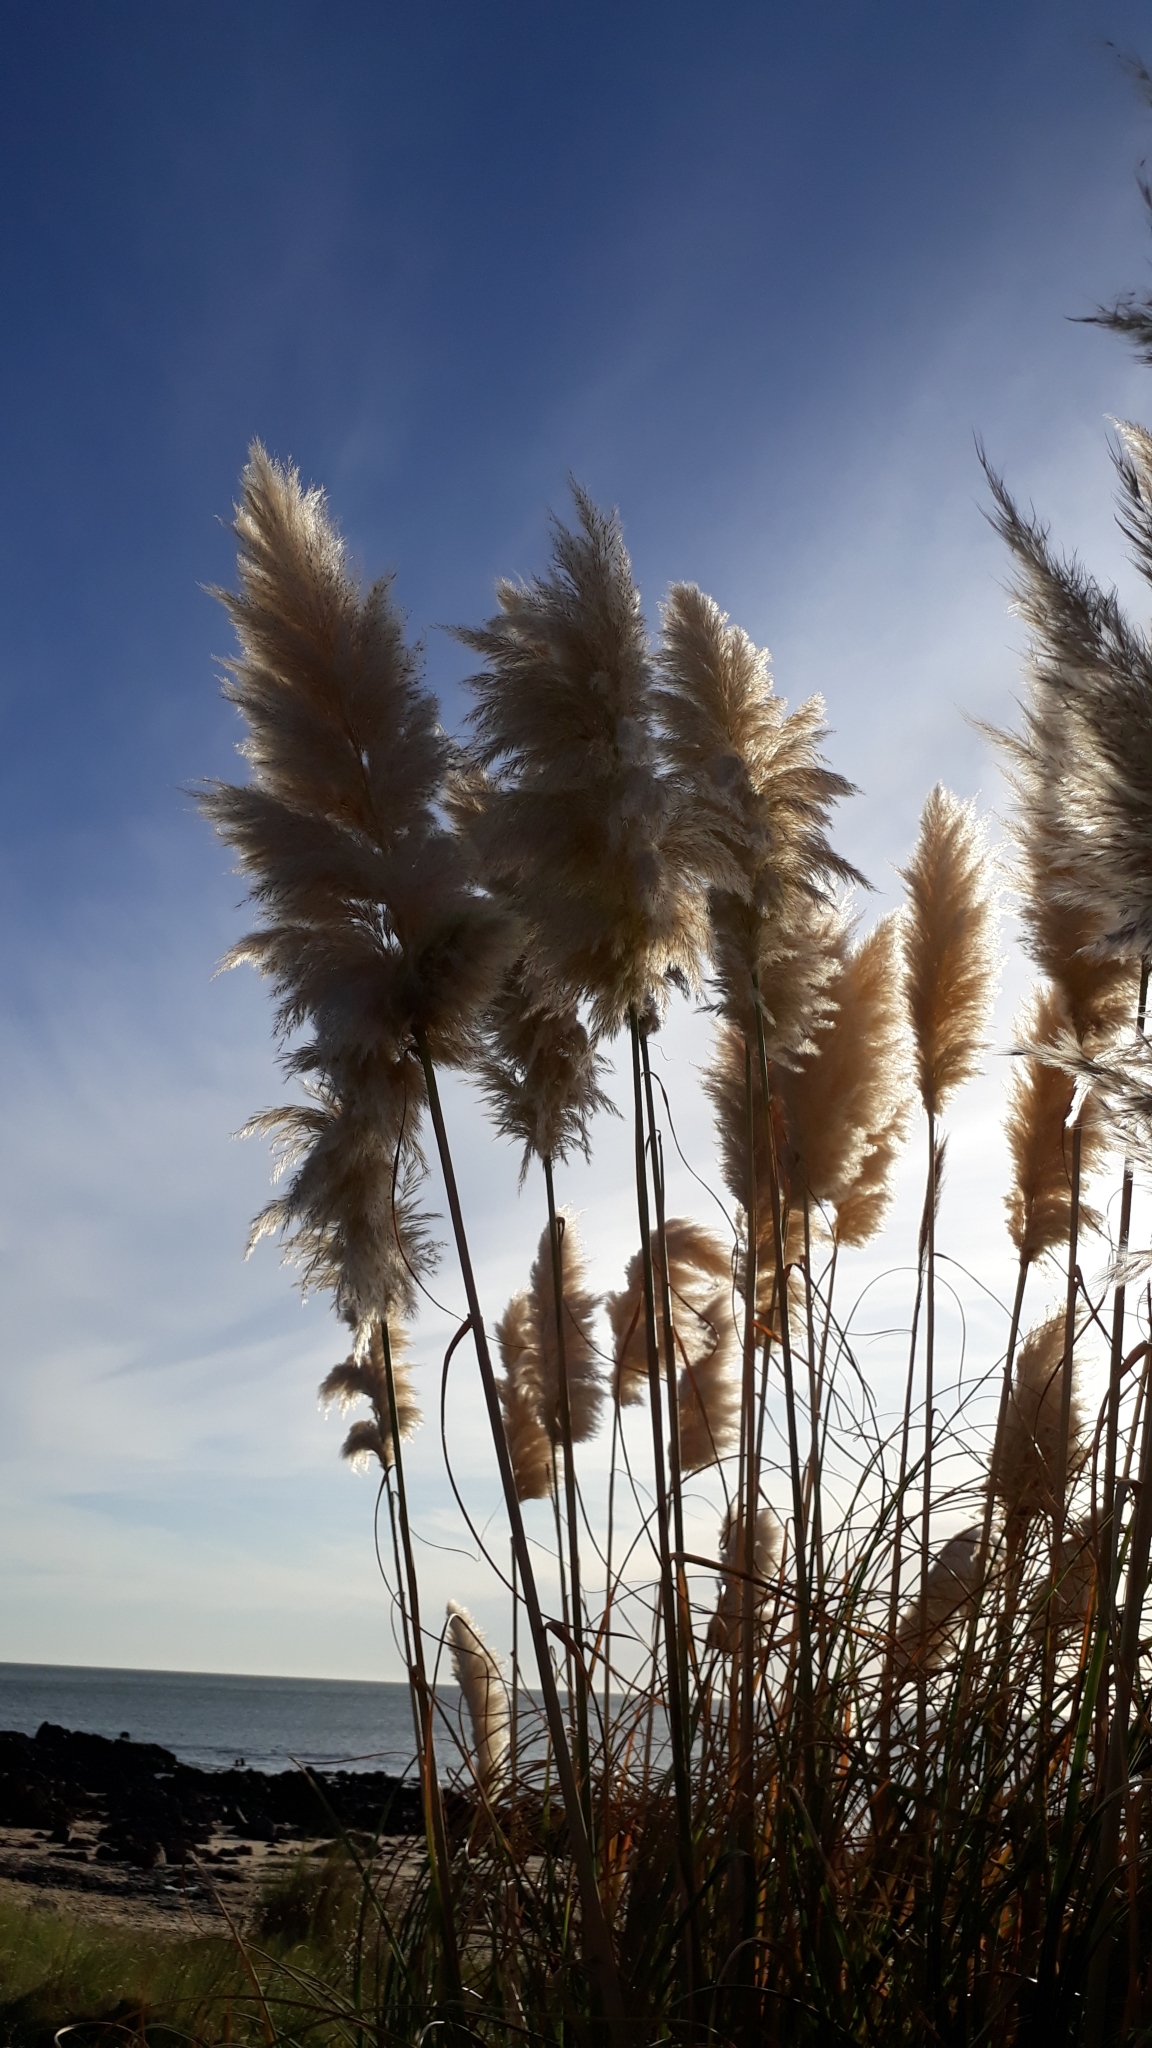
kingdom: Plantae
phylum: Tracheophyta
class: Liliopsida
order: Poales
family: Poaceae
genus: Cortaderia
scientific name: Cortaderia selloana
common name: Uruguayan pampas grass
